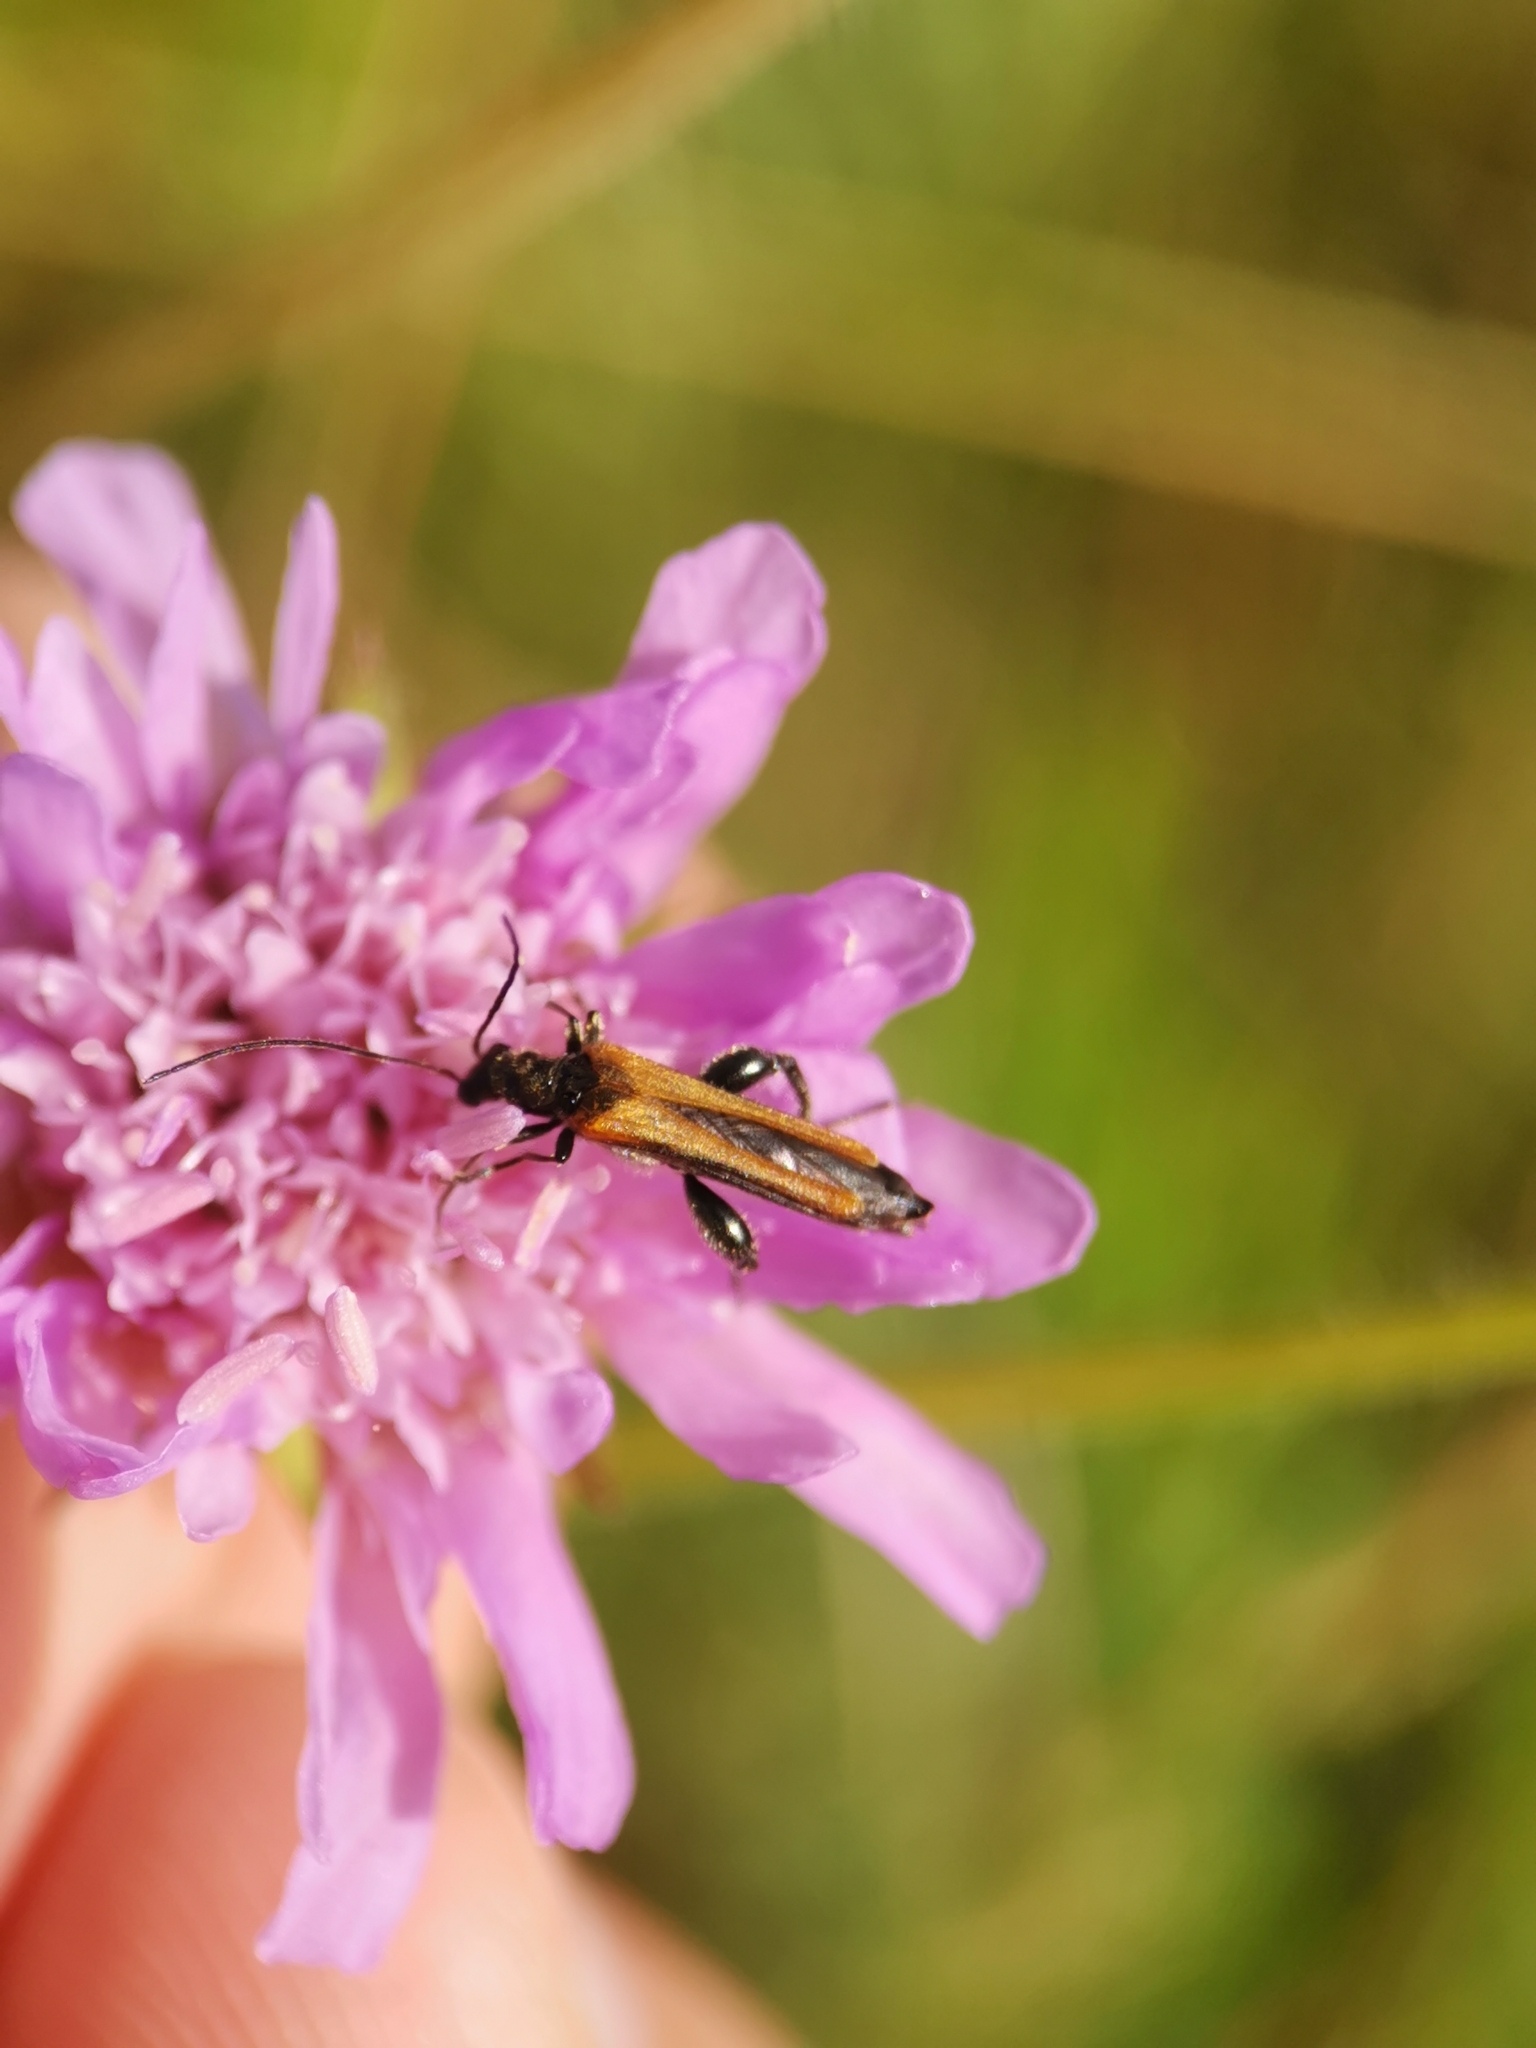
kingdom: Animalia
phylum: Arthropoda
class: Insecta
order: Coleoptera
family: Oedemeridae
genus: Oedemera
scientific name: Oedemera femorata
